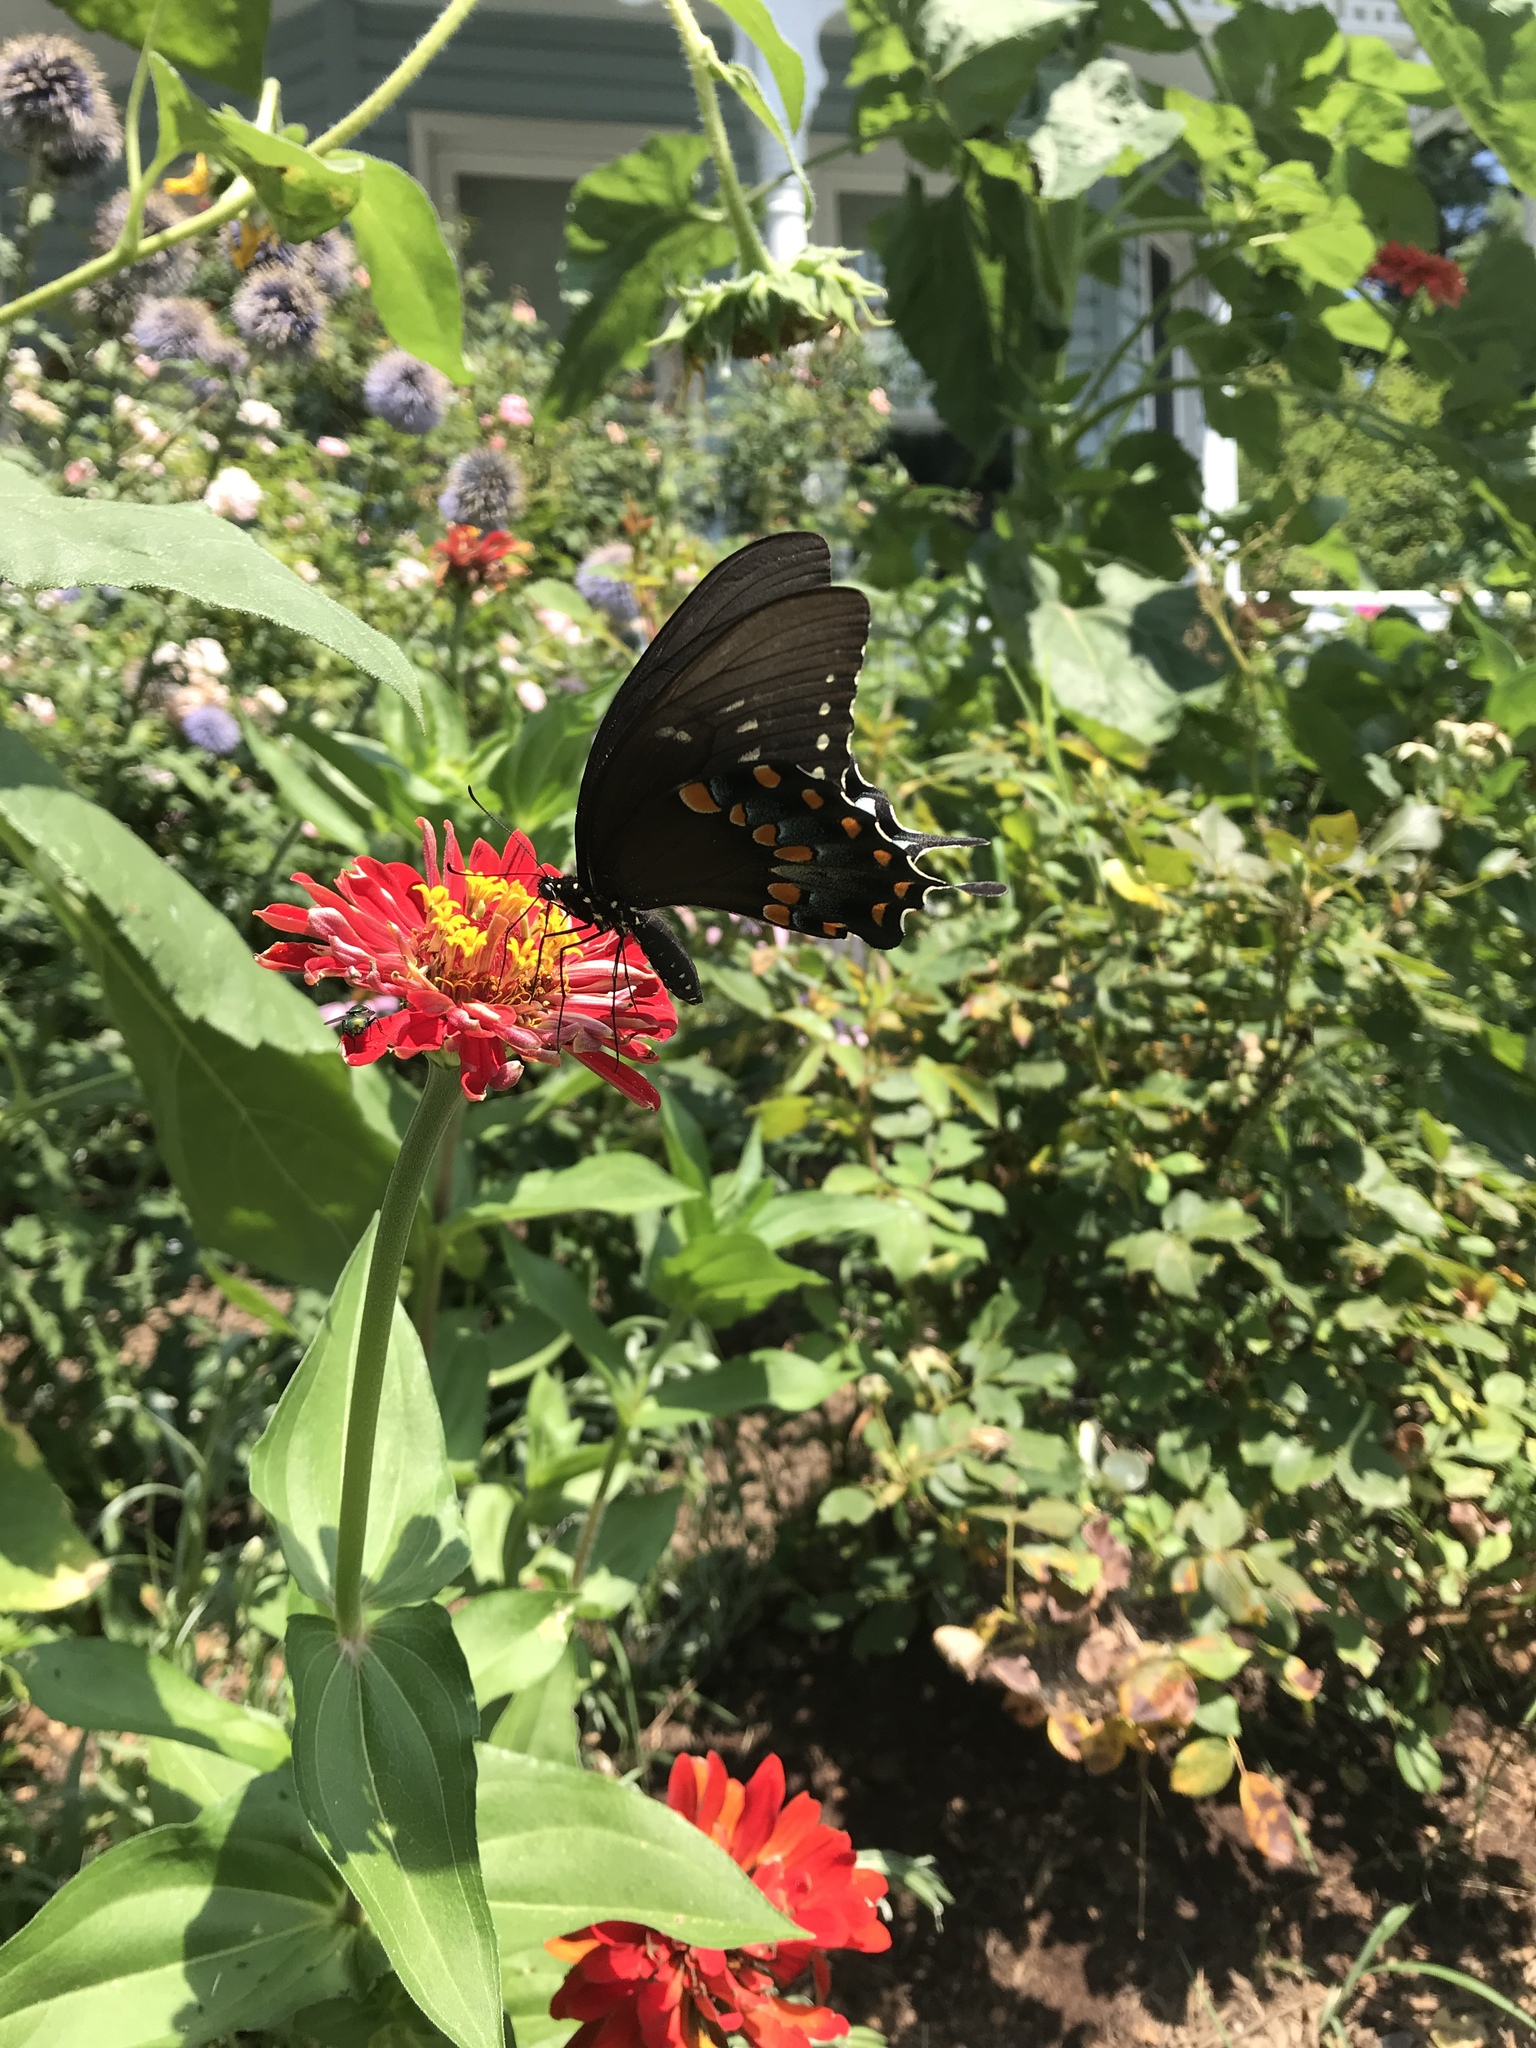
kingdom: Animalia
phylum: Arthropoda
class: Insecta
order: Lepidoptera
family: Papilionidae
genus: Papilio
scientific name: Papilio troilus
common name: Spicebush swallowtail
